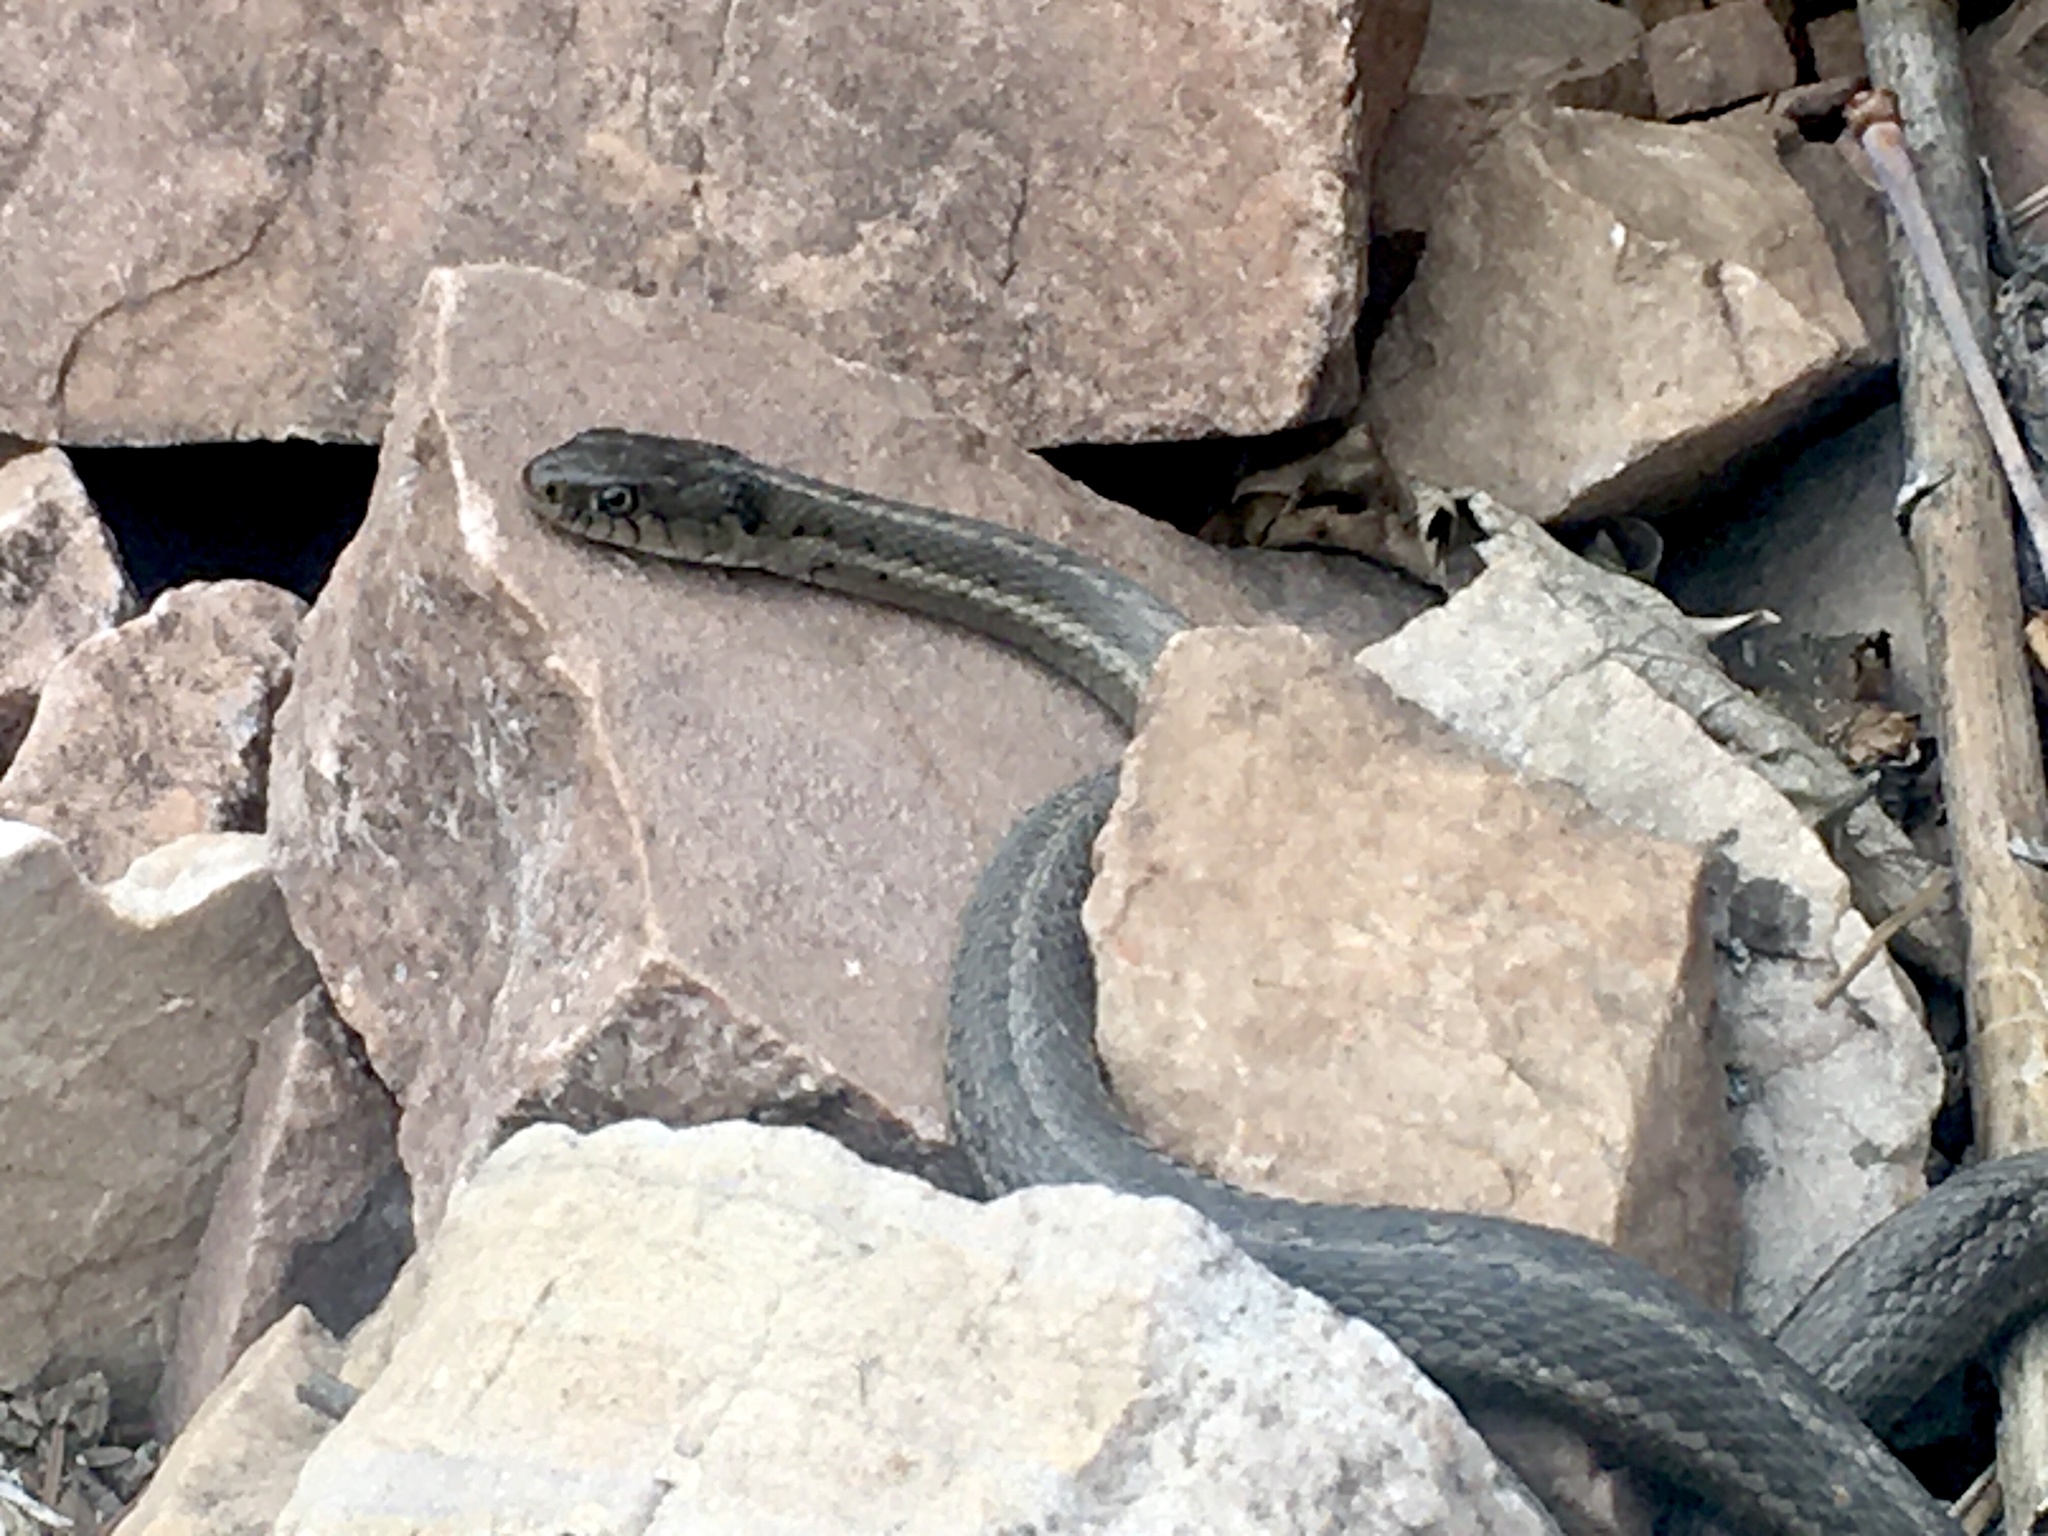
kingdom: Animalia
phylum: Chordata
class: Squamata
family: Colubridae
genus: Thamnophis
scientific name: Thamnophis elegans
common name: Western terrestrial garter snake
